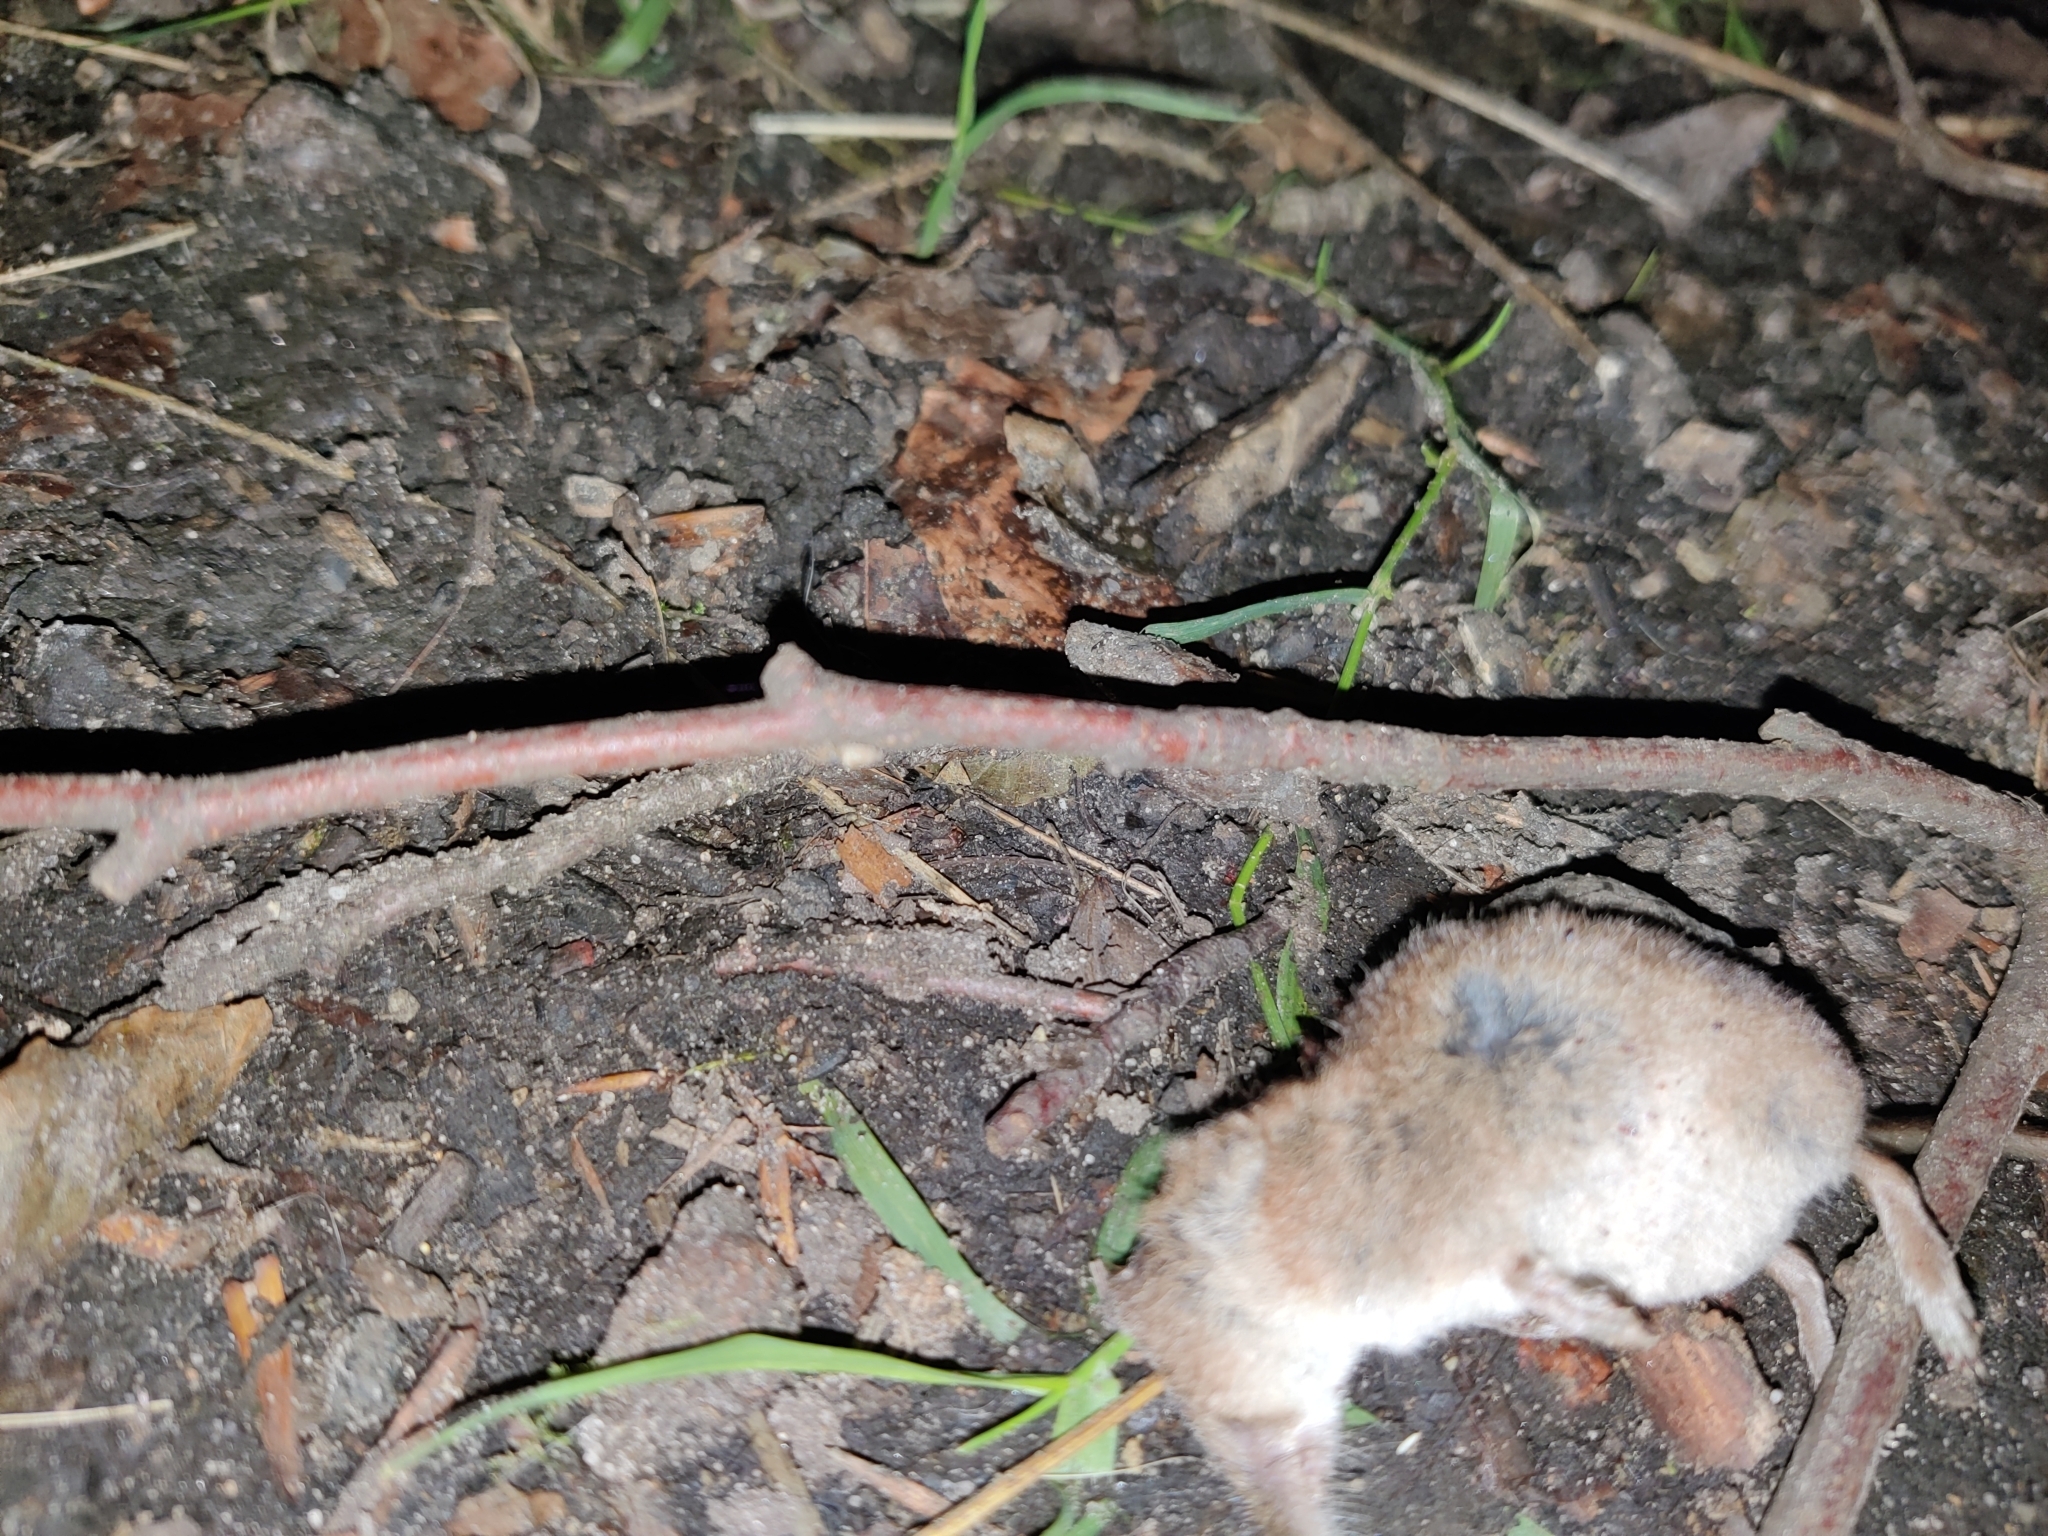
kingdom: Animalia
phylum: Chordata
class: Mammalia
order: Soricomorpha
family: Soricidae
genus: Sorex
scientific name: Sorex araneus
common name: Common shrew
